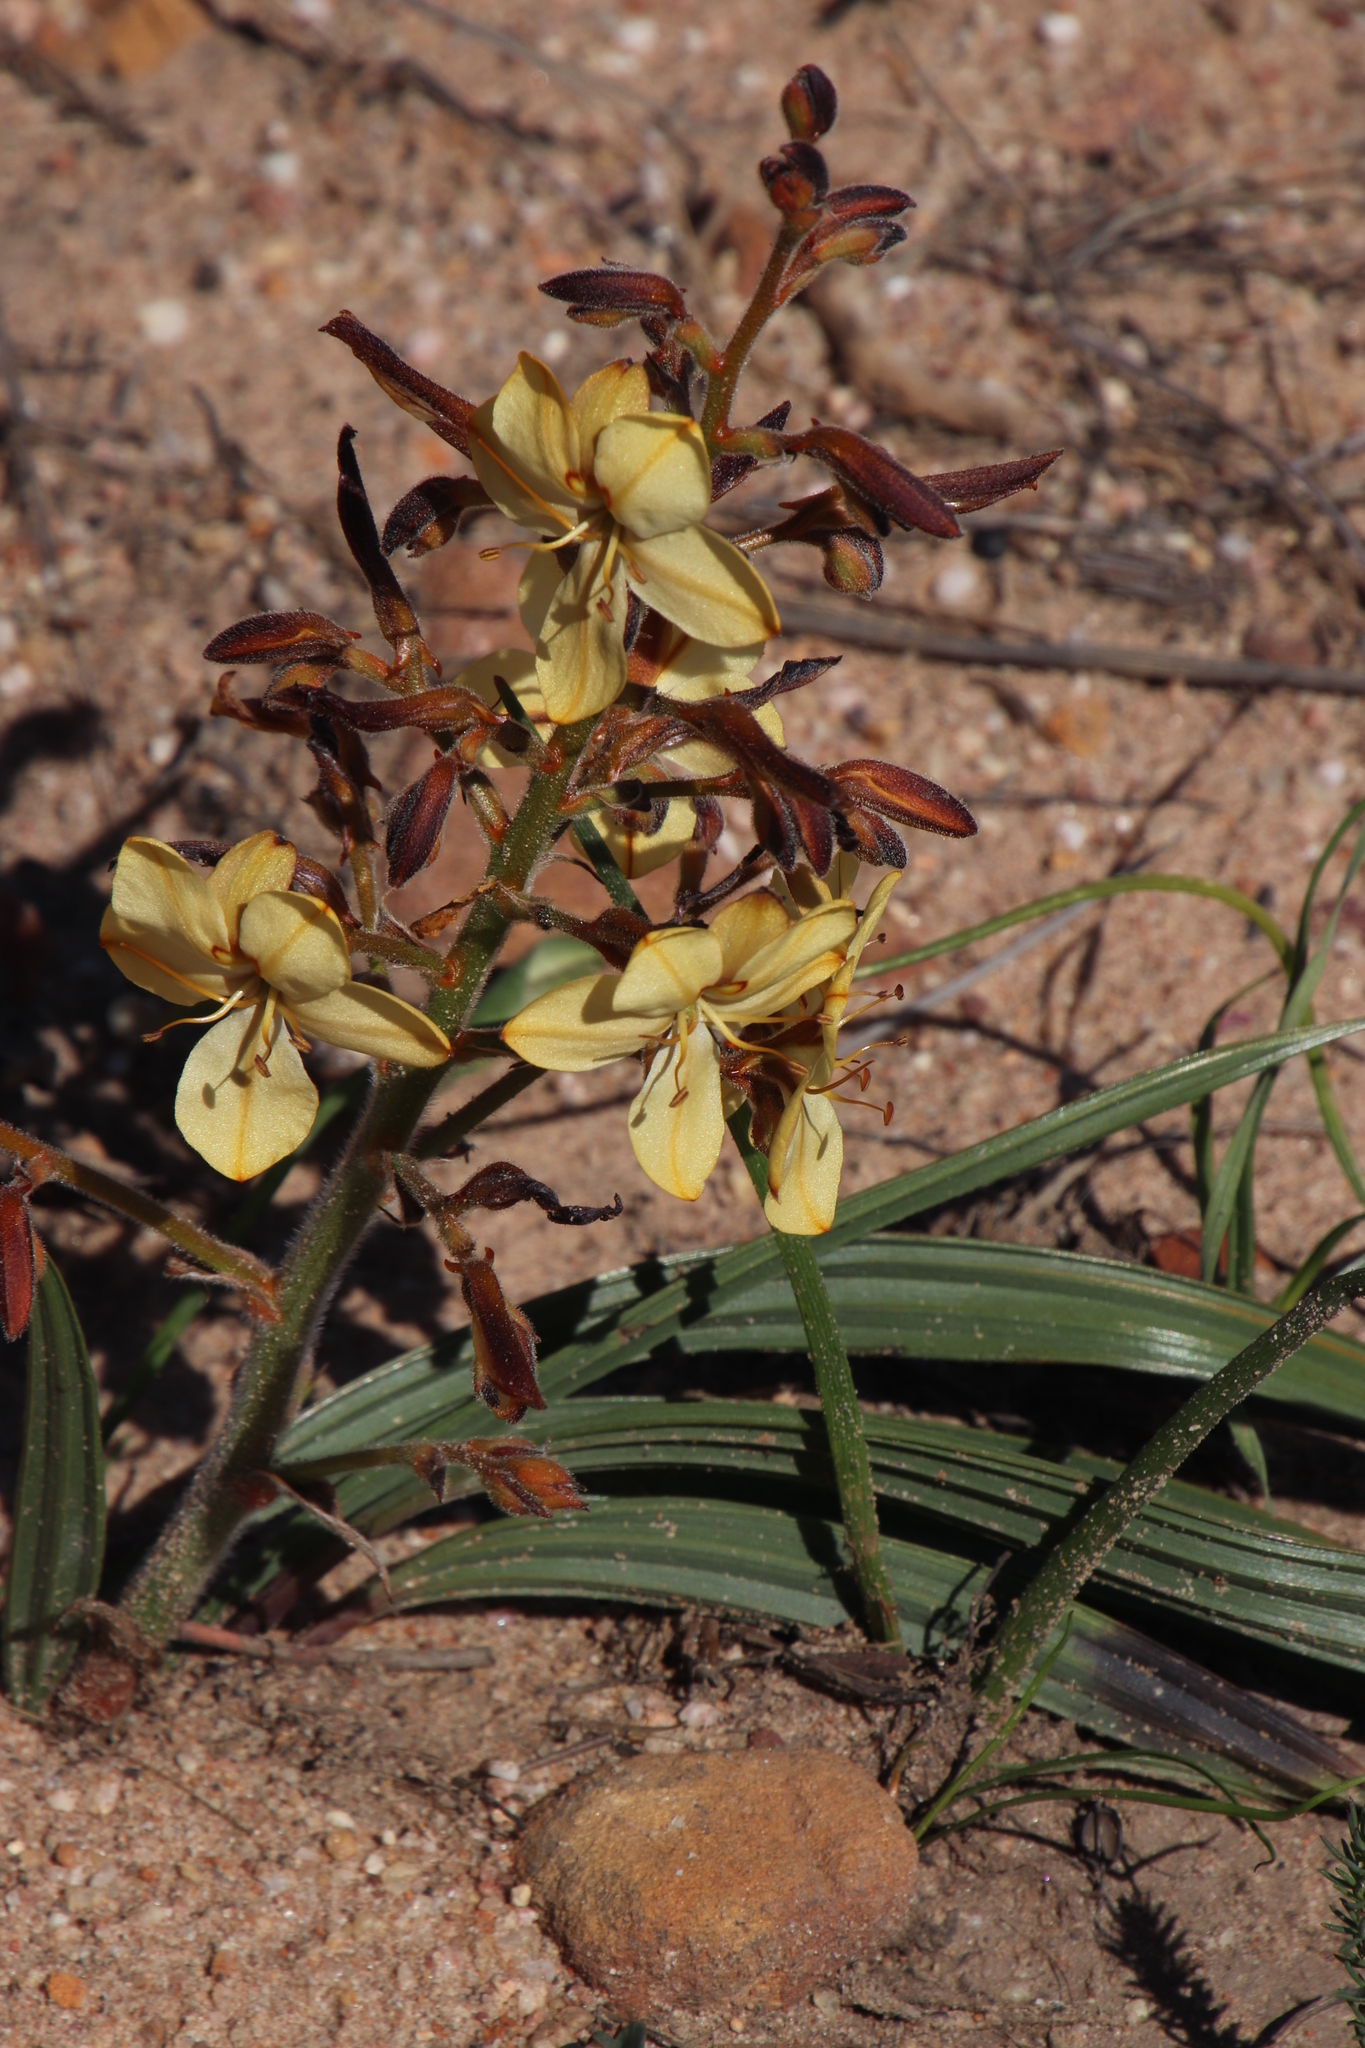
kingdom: Plantae
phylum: Tracheophyta
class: Liliopsida
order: Commelinales
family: Haemodoraceae
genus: Wachendorfia
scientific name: Wachendorfia paniculata
